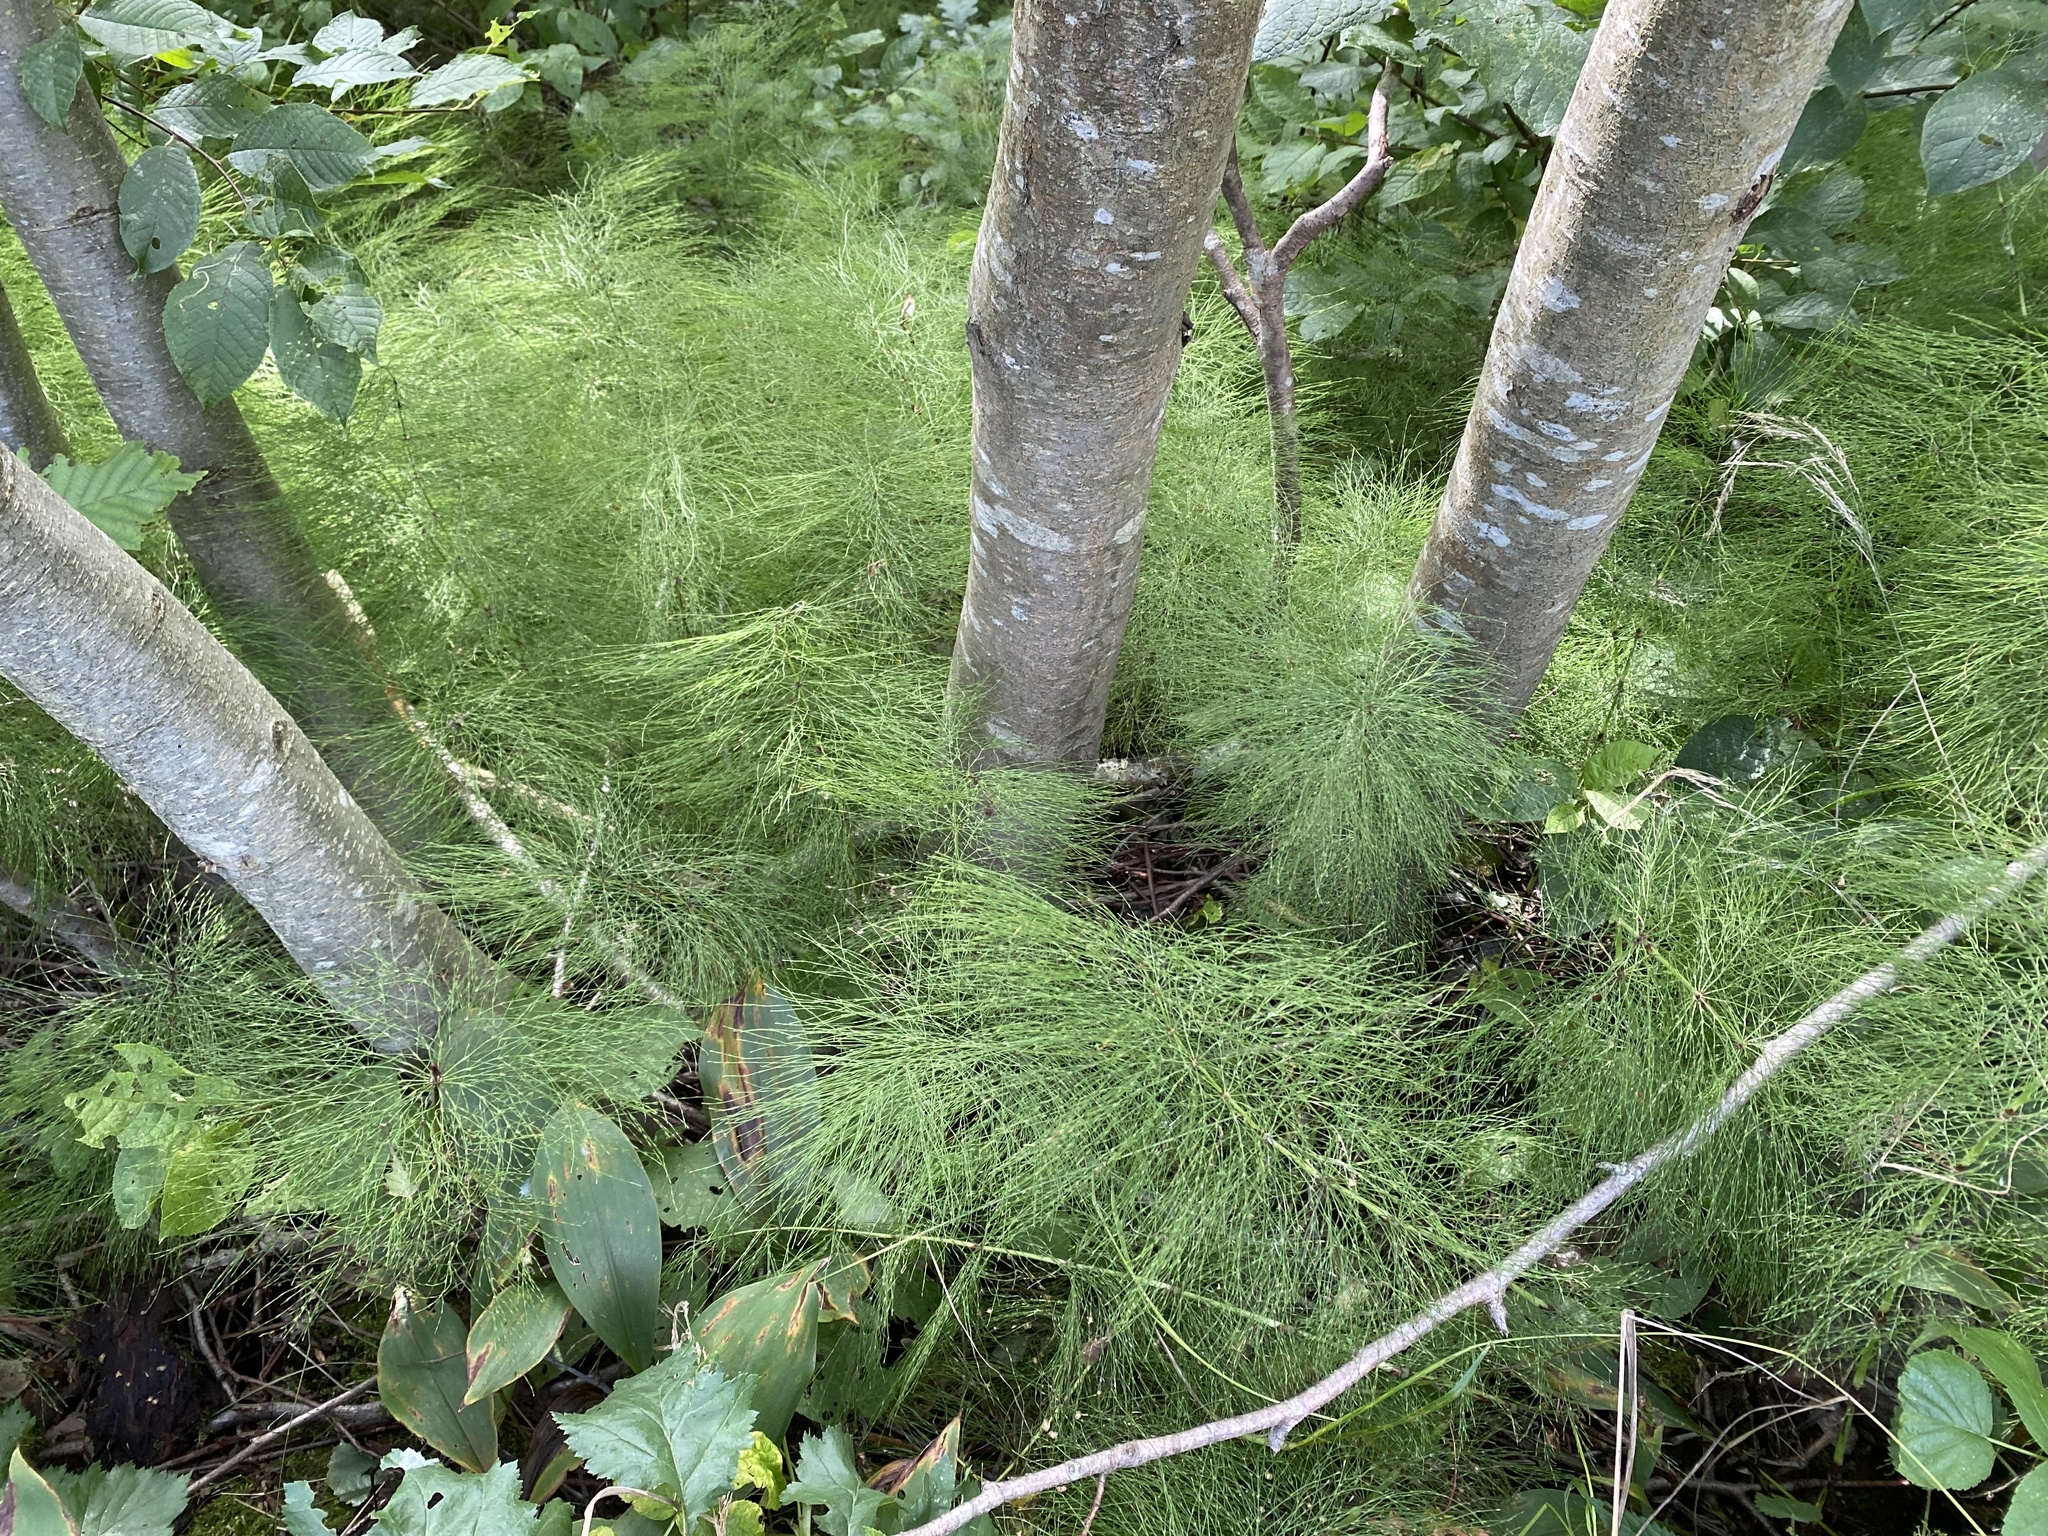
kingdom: Plantae
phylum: Tracheophyta
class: Polypodiopsida
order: Equisetales
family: Equisetaceae
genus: Equisetum
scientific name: Equisetum sylvaticum
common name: Wood horsetail
